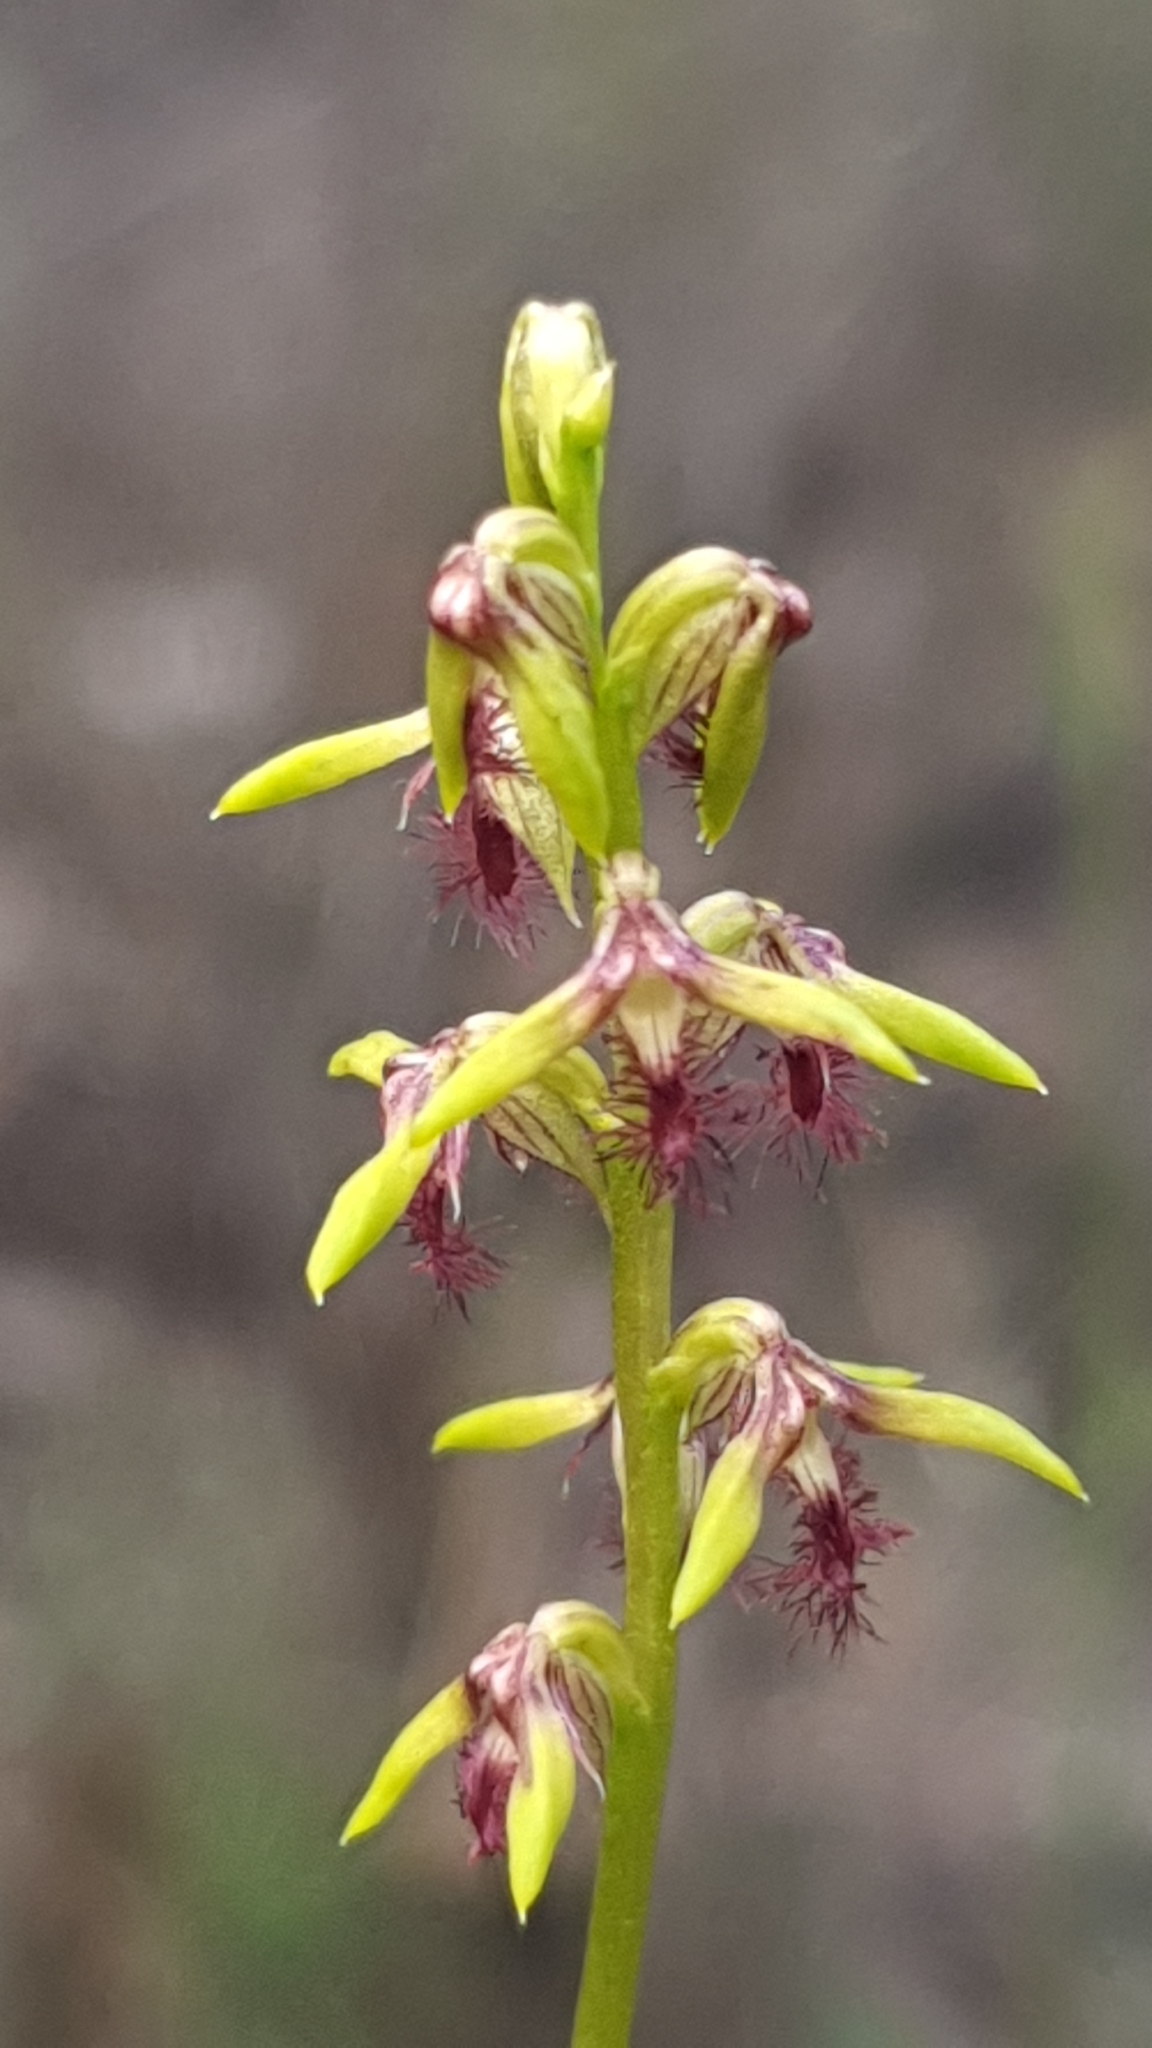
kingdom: Plantae
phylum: Tracheophyta
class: Liliopsida
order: Asparagales
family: Orchidaceae
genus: Genoplesium
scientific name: Genoplesium fimbriatum
